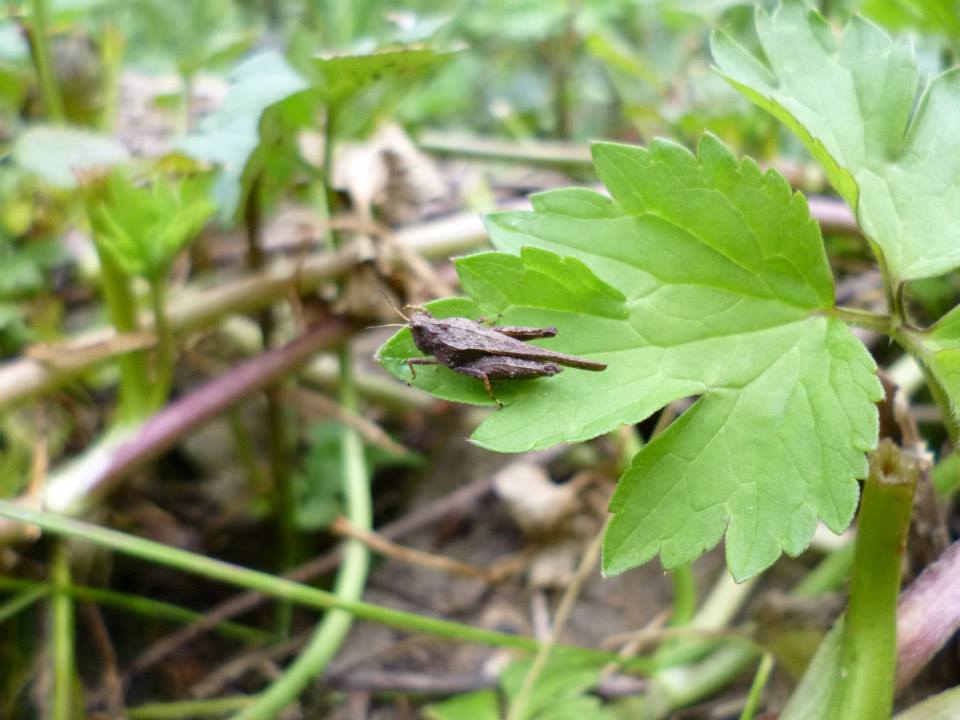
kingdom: Animalia
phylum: Arthropoda
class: Insecta
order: Orthoptera
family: Tetrigidae
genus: Tetrix
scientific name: Tetrix bolivari
